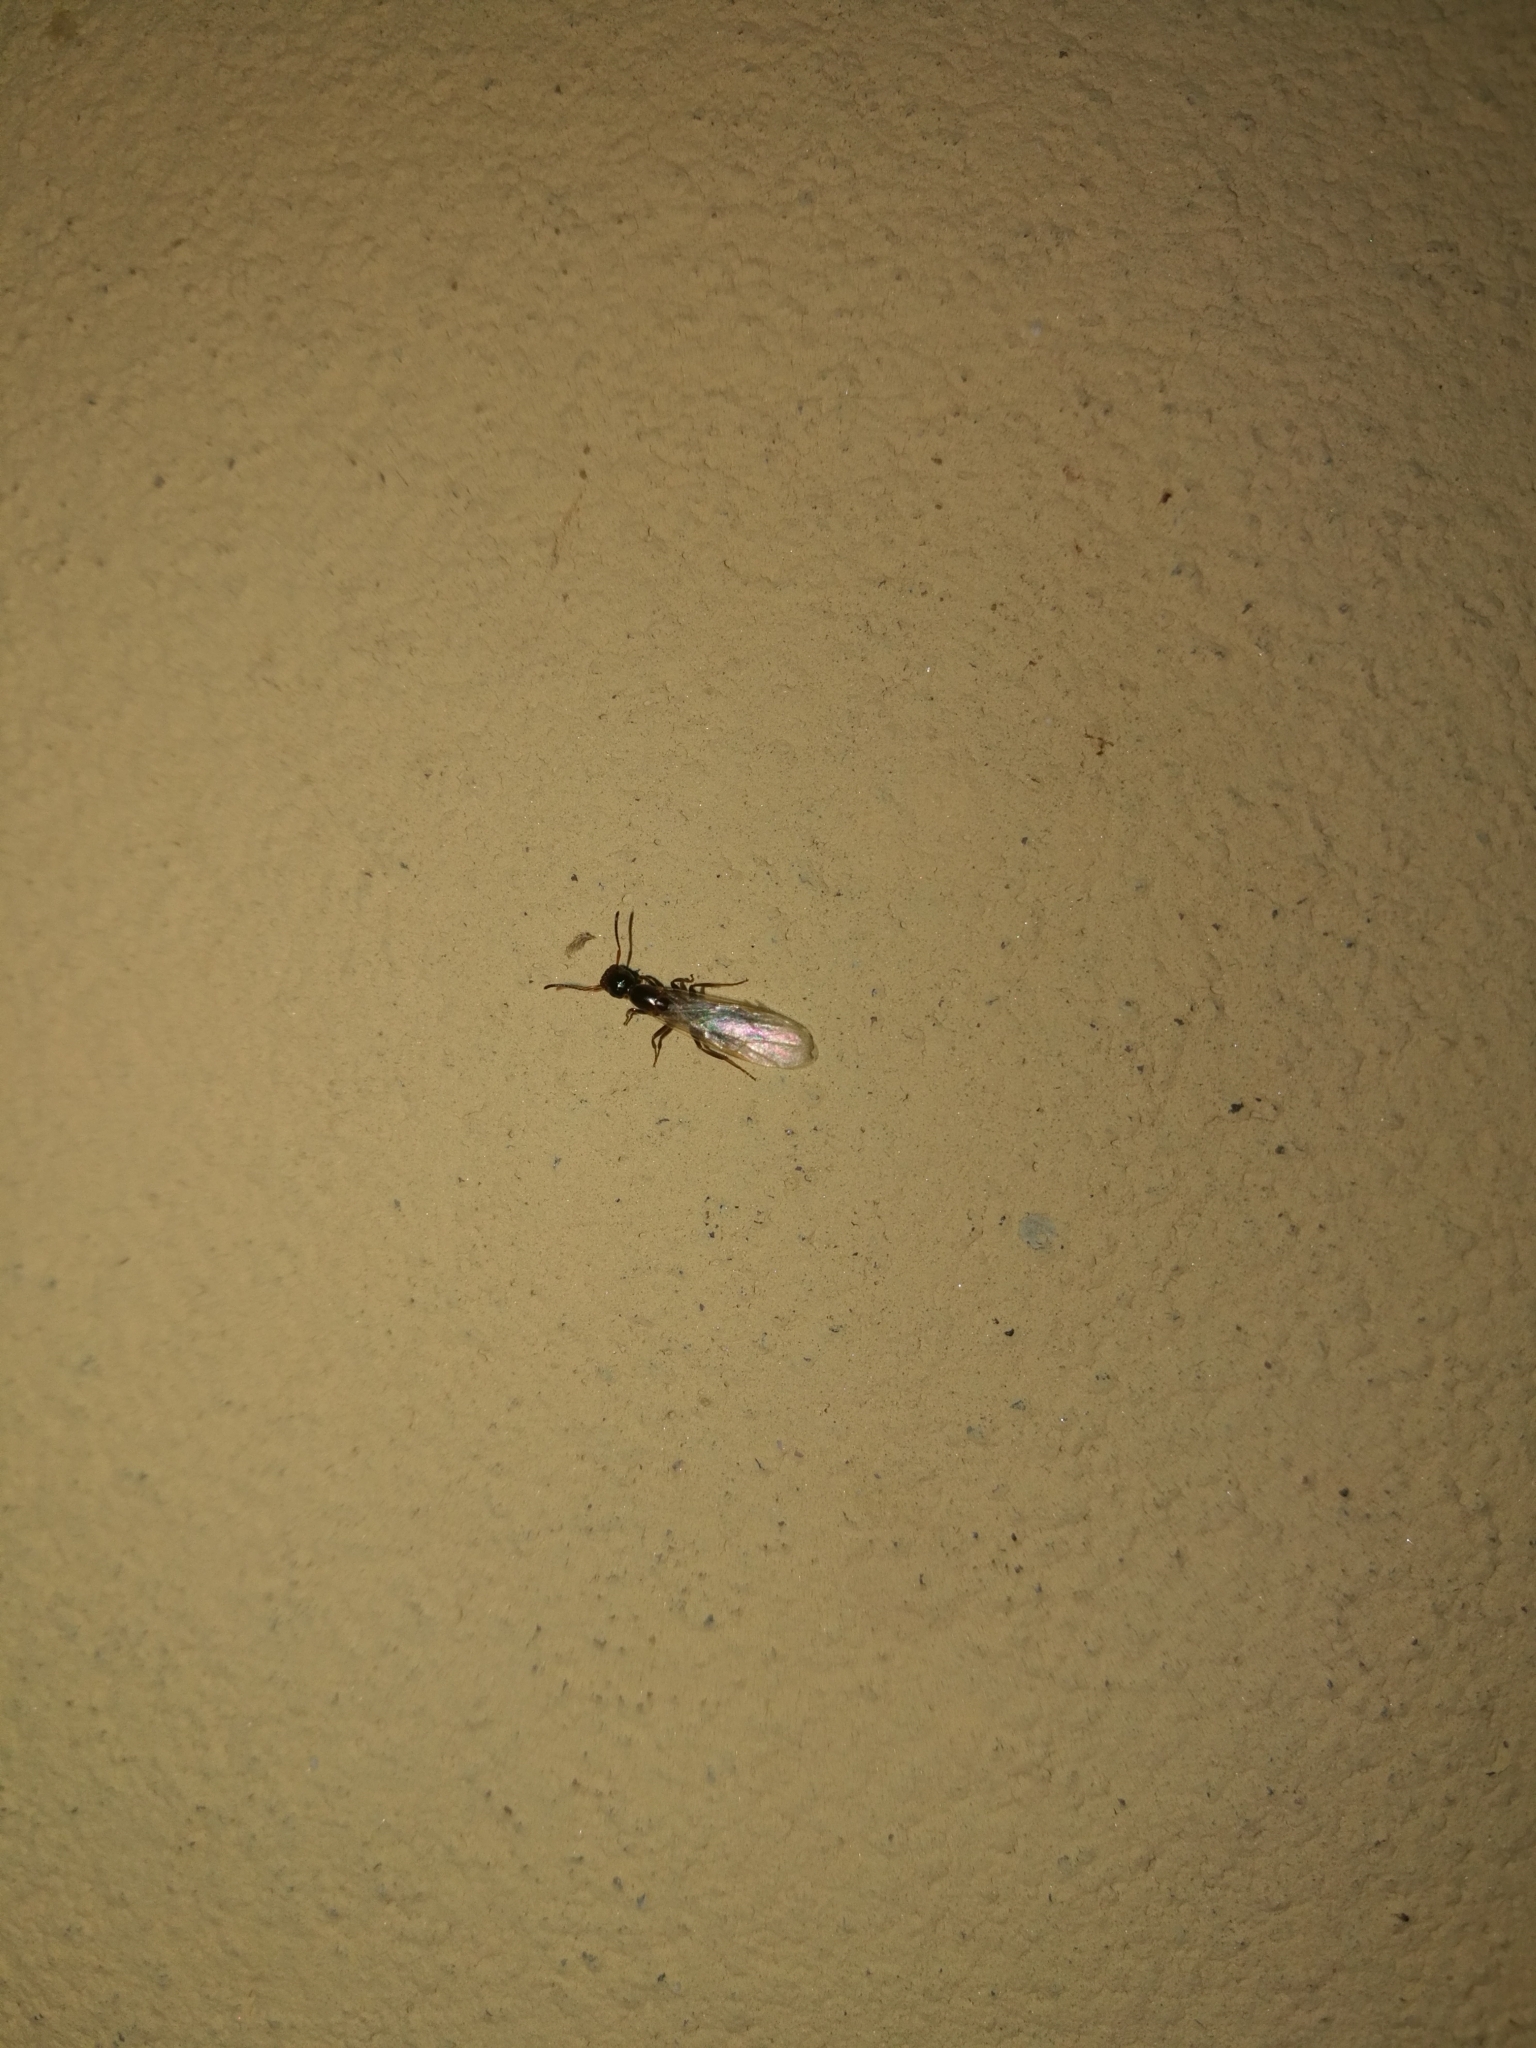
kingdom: Animalia
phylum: Arthropoda
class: Insecta
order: Hymenoptera
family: Formicidae
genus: Camponotus
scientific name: Camponotus truncatus
